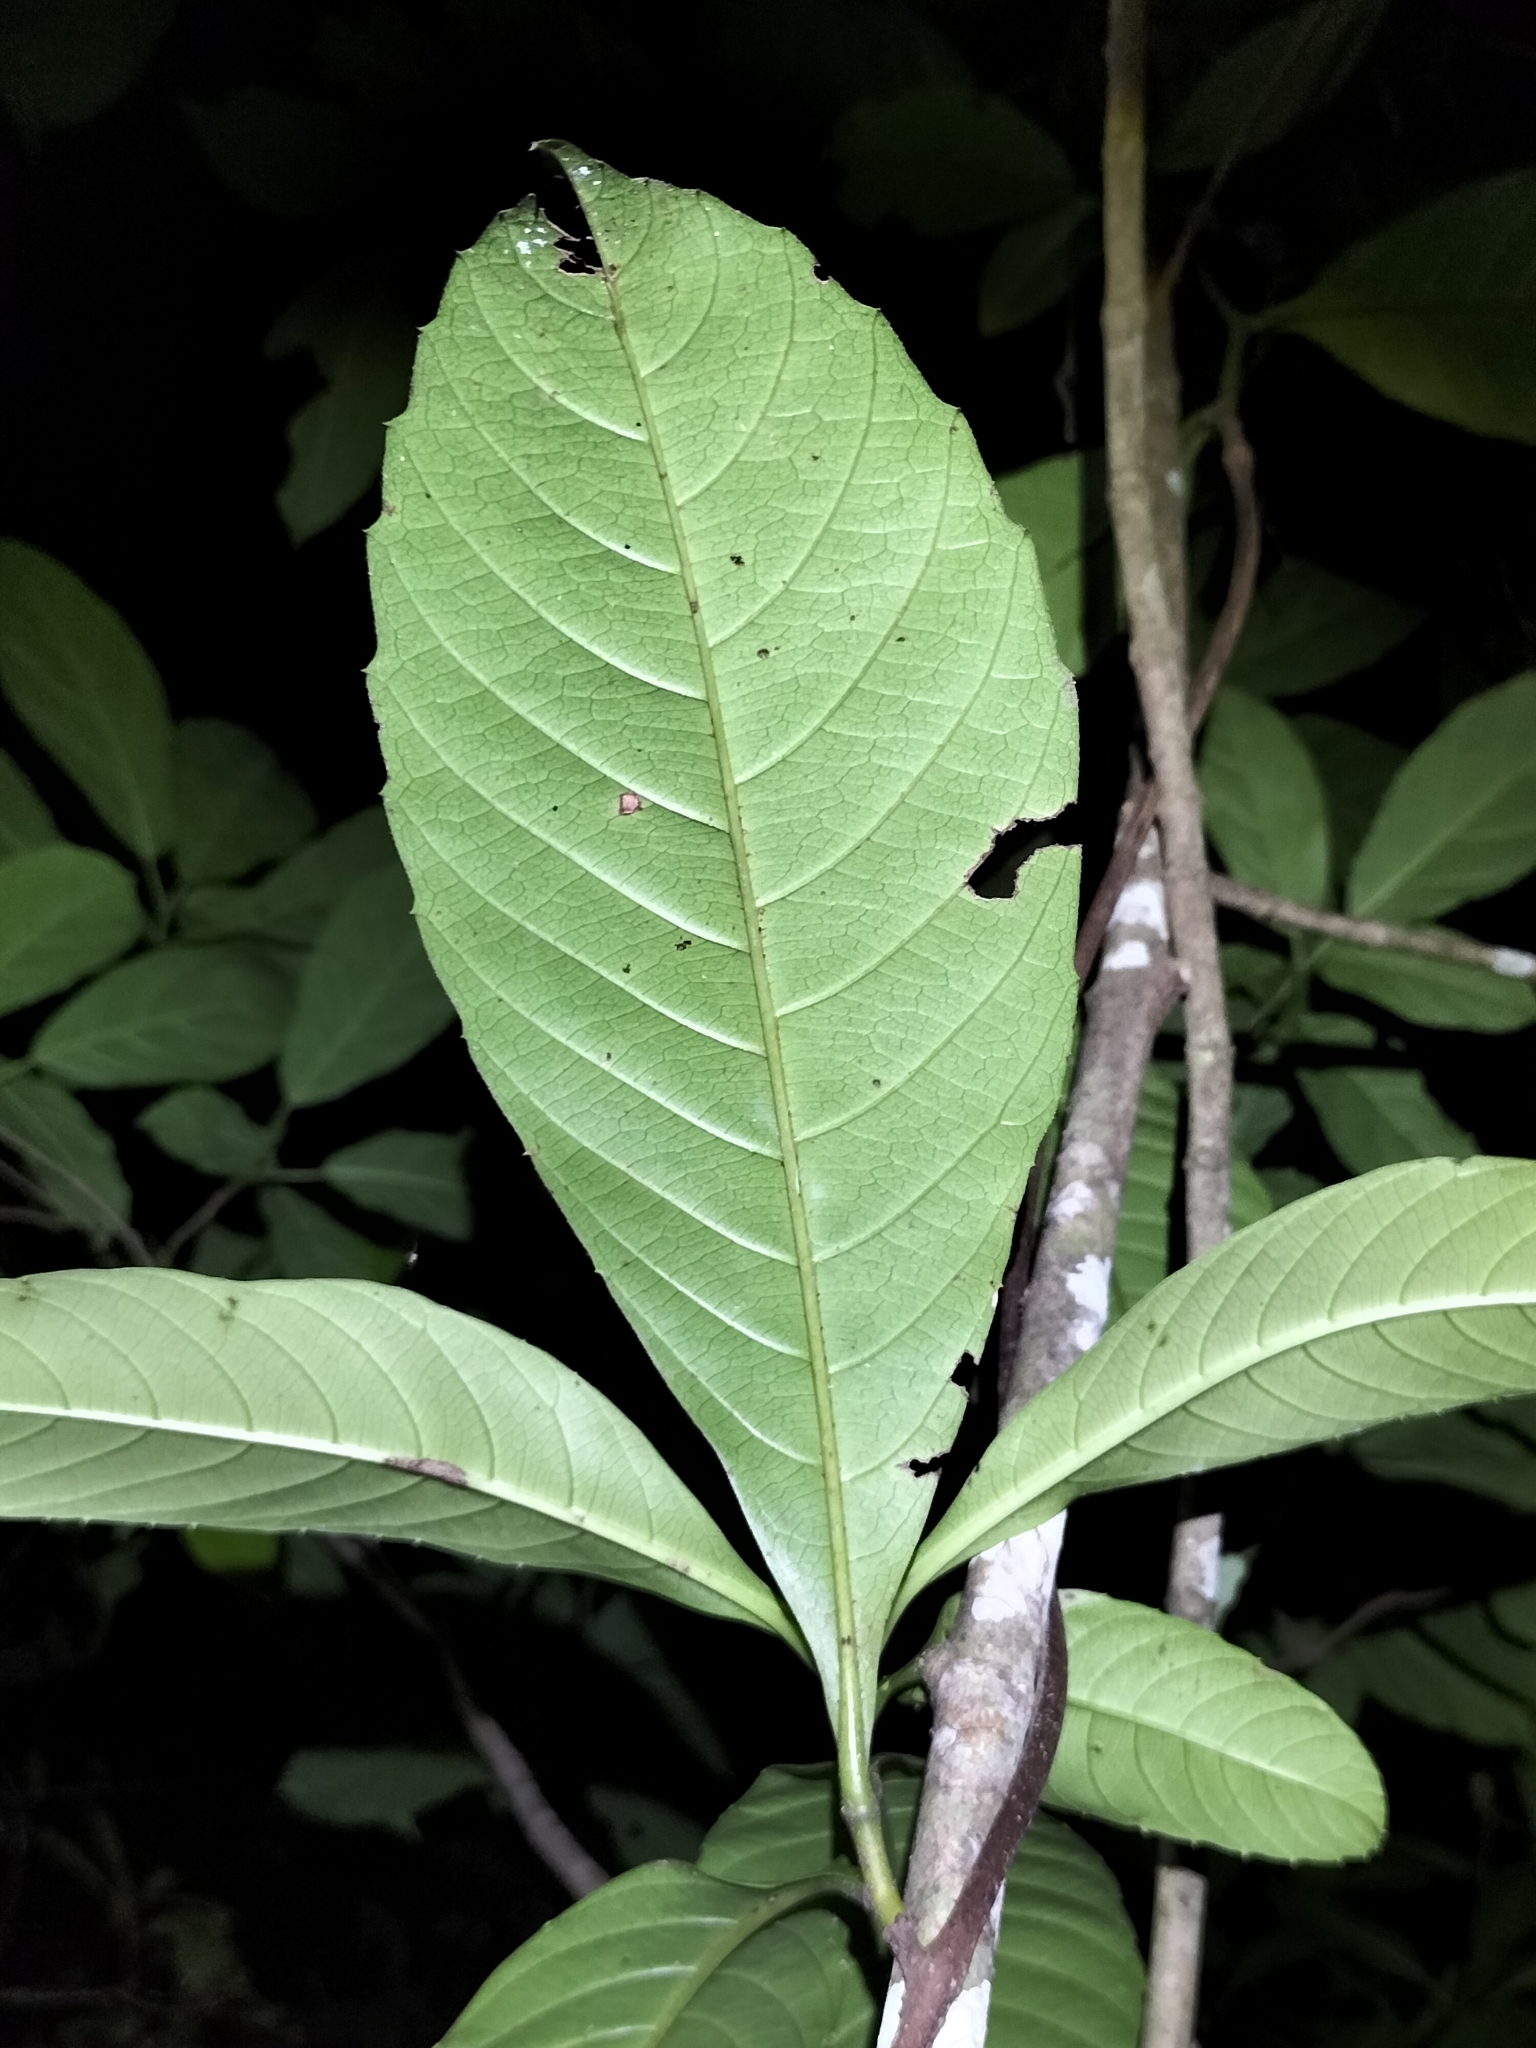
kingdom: Plantae
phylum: Tracheophyta
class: Magnoliopsida
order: Dilleniales
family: Dilleniaceae
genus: Tetracera
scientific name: Tetracera nordtiana
